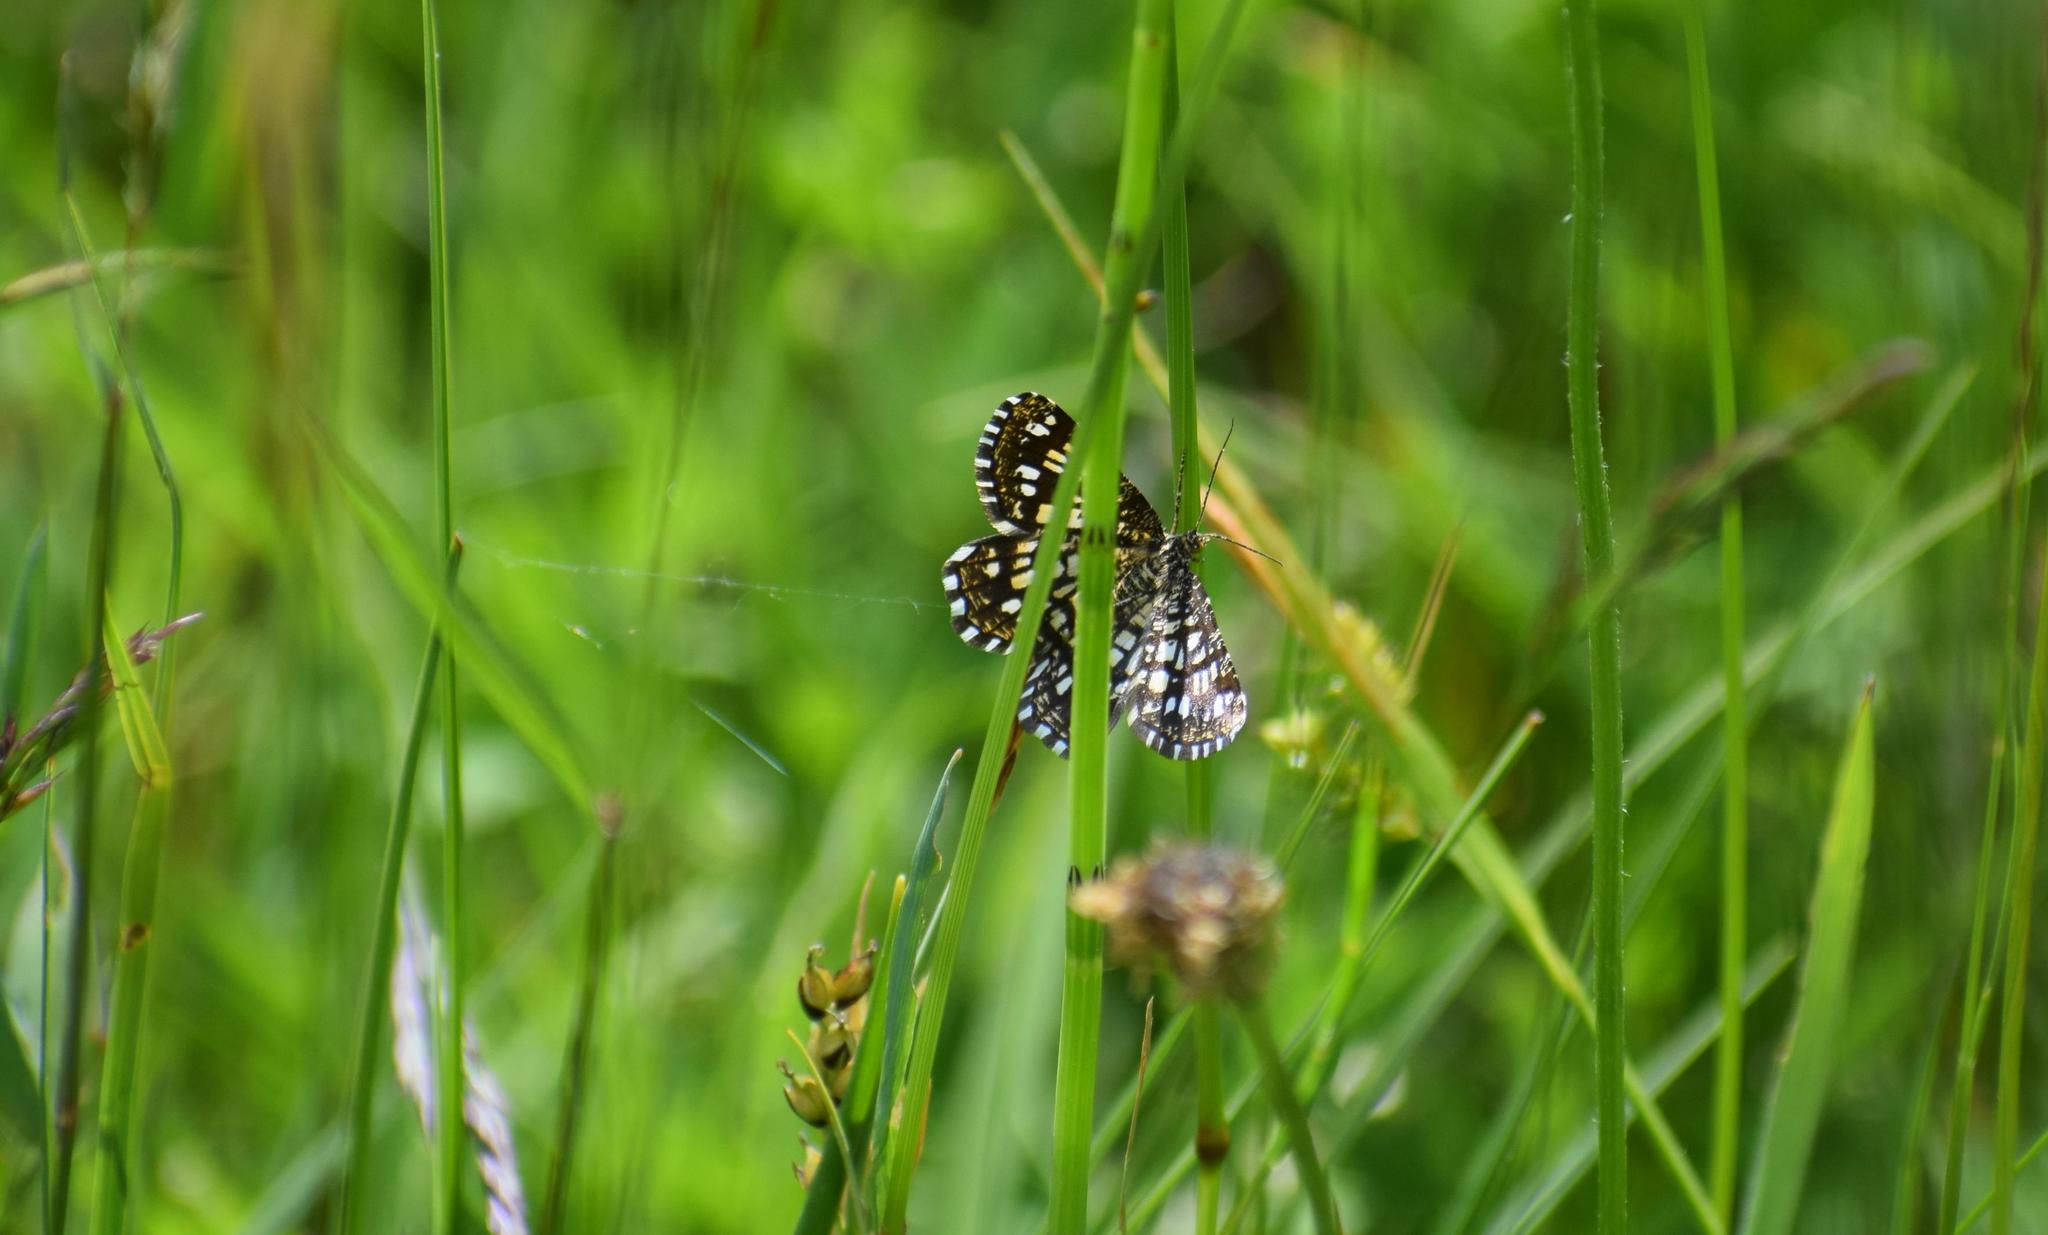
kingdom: Animalia
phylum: Arthropoda
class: Insecta
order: Lepidoptera
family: Geometridae
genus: Chiasmia
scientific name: Chiasmia clathrata
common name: Latticed heath
